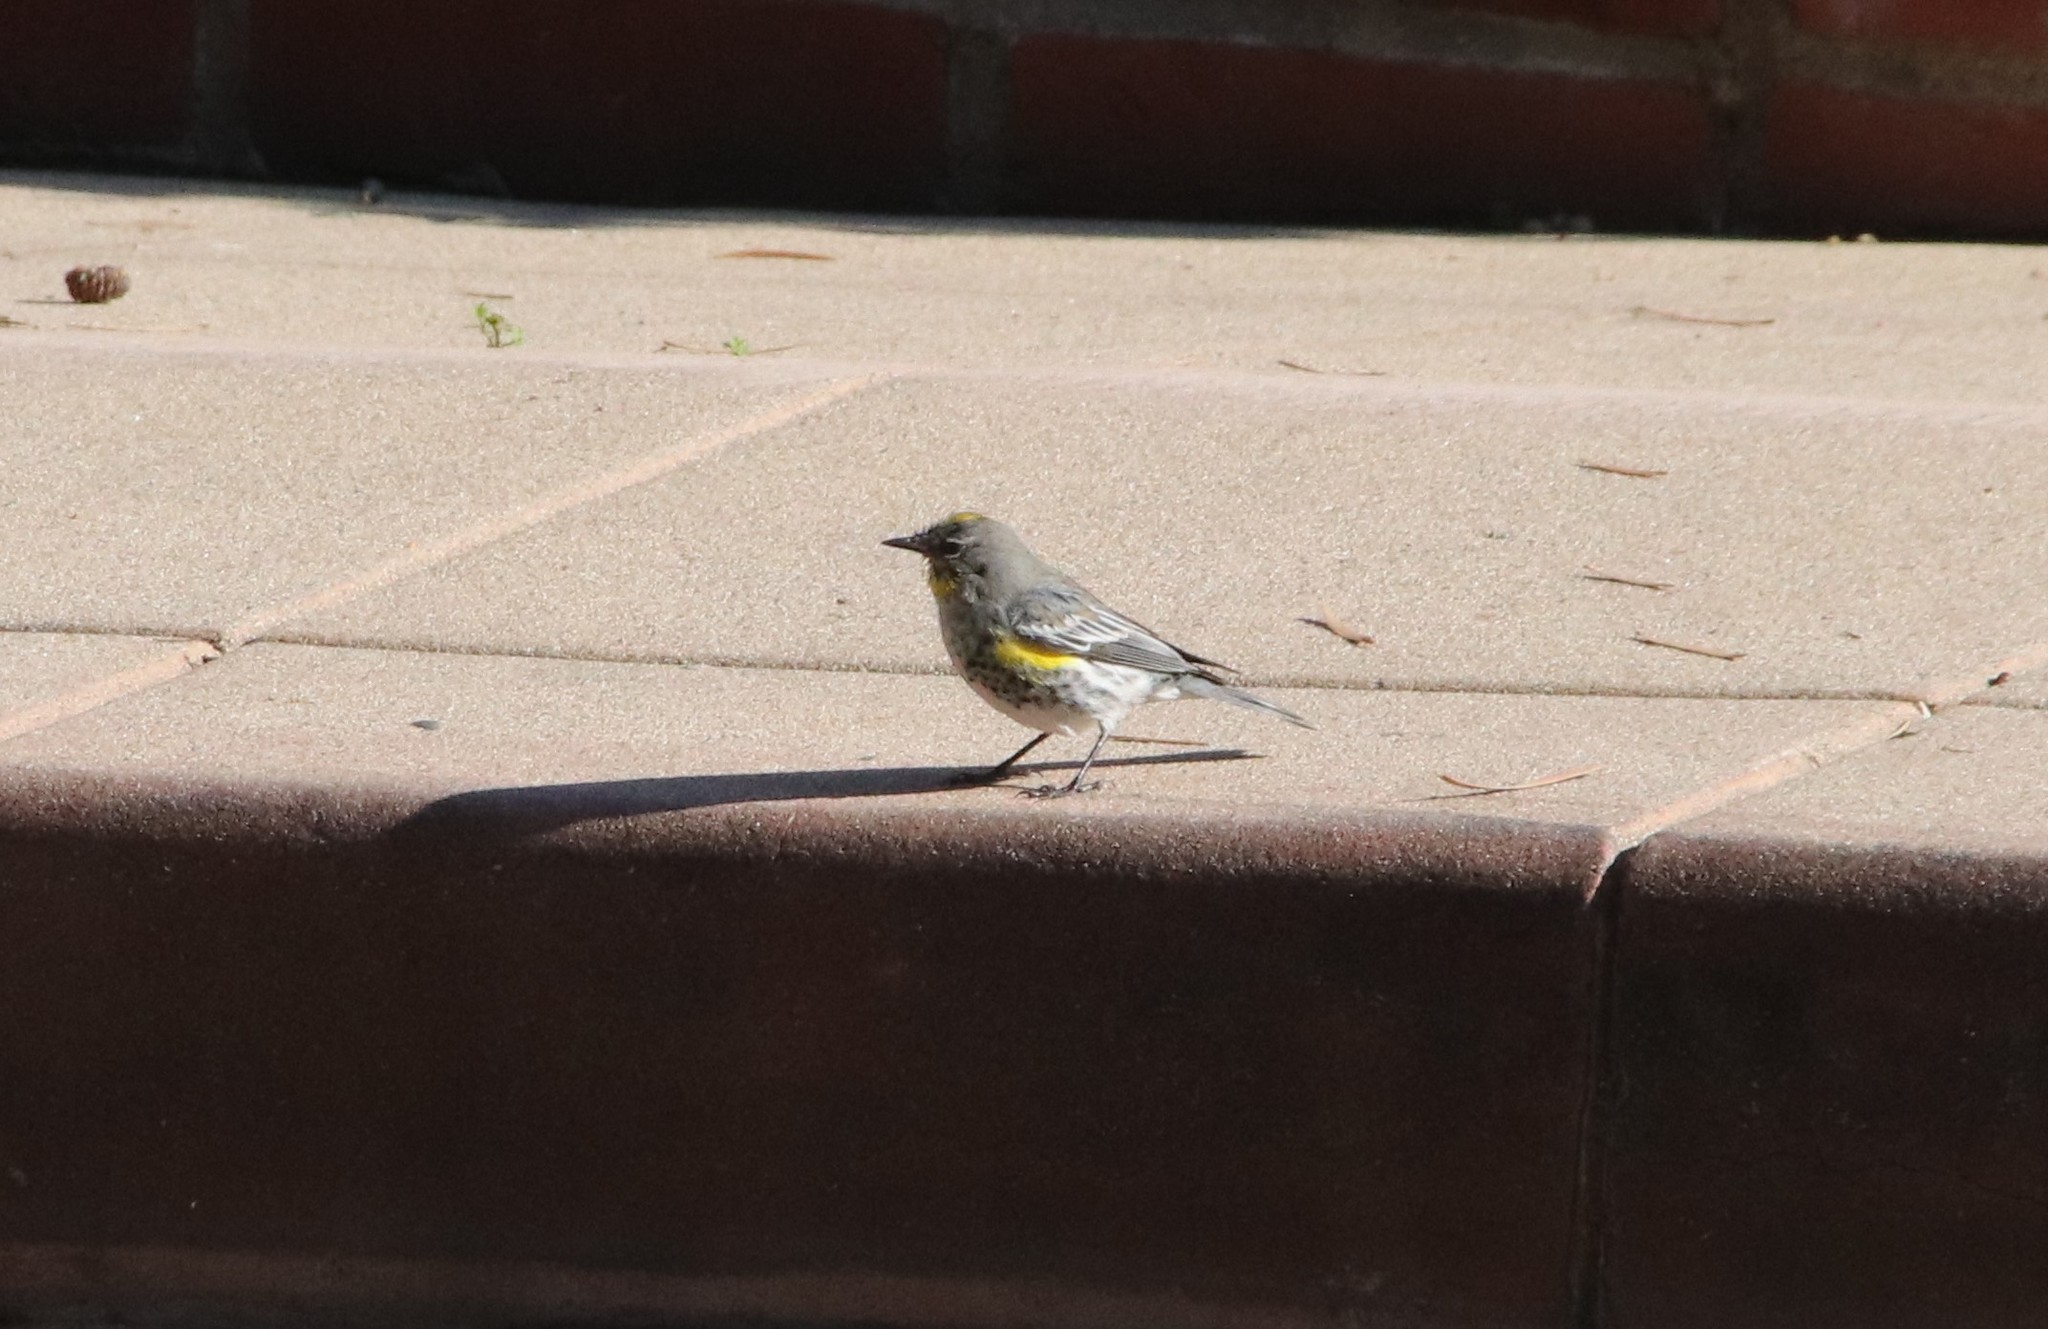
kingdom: Animalia
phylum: Chordata
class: Aves
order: Passeriformes
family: Parulidae
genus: Setophaga
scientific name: Setophaga auduboni
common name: Audubon's warbler
